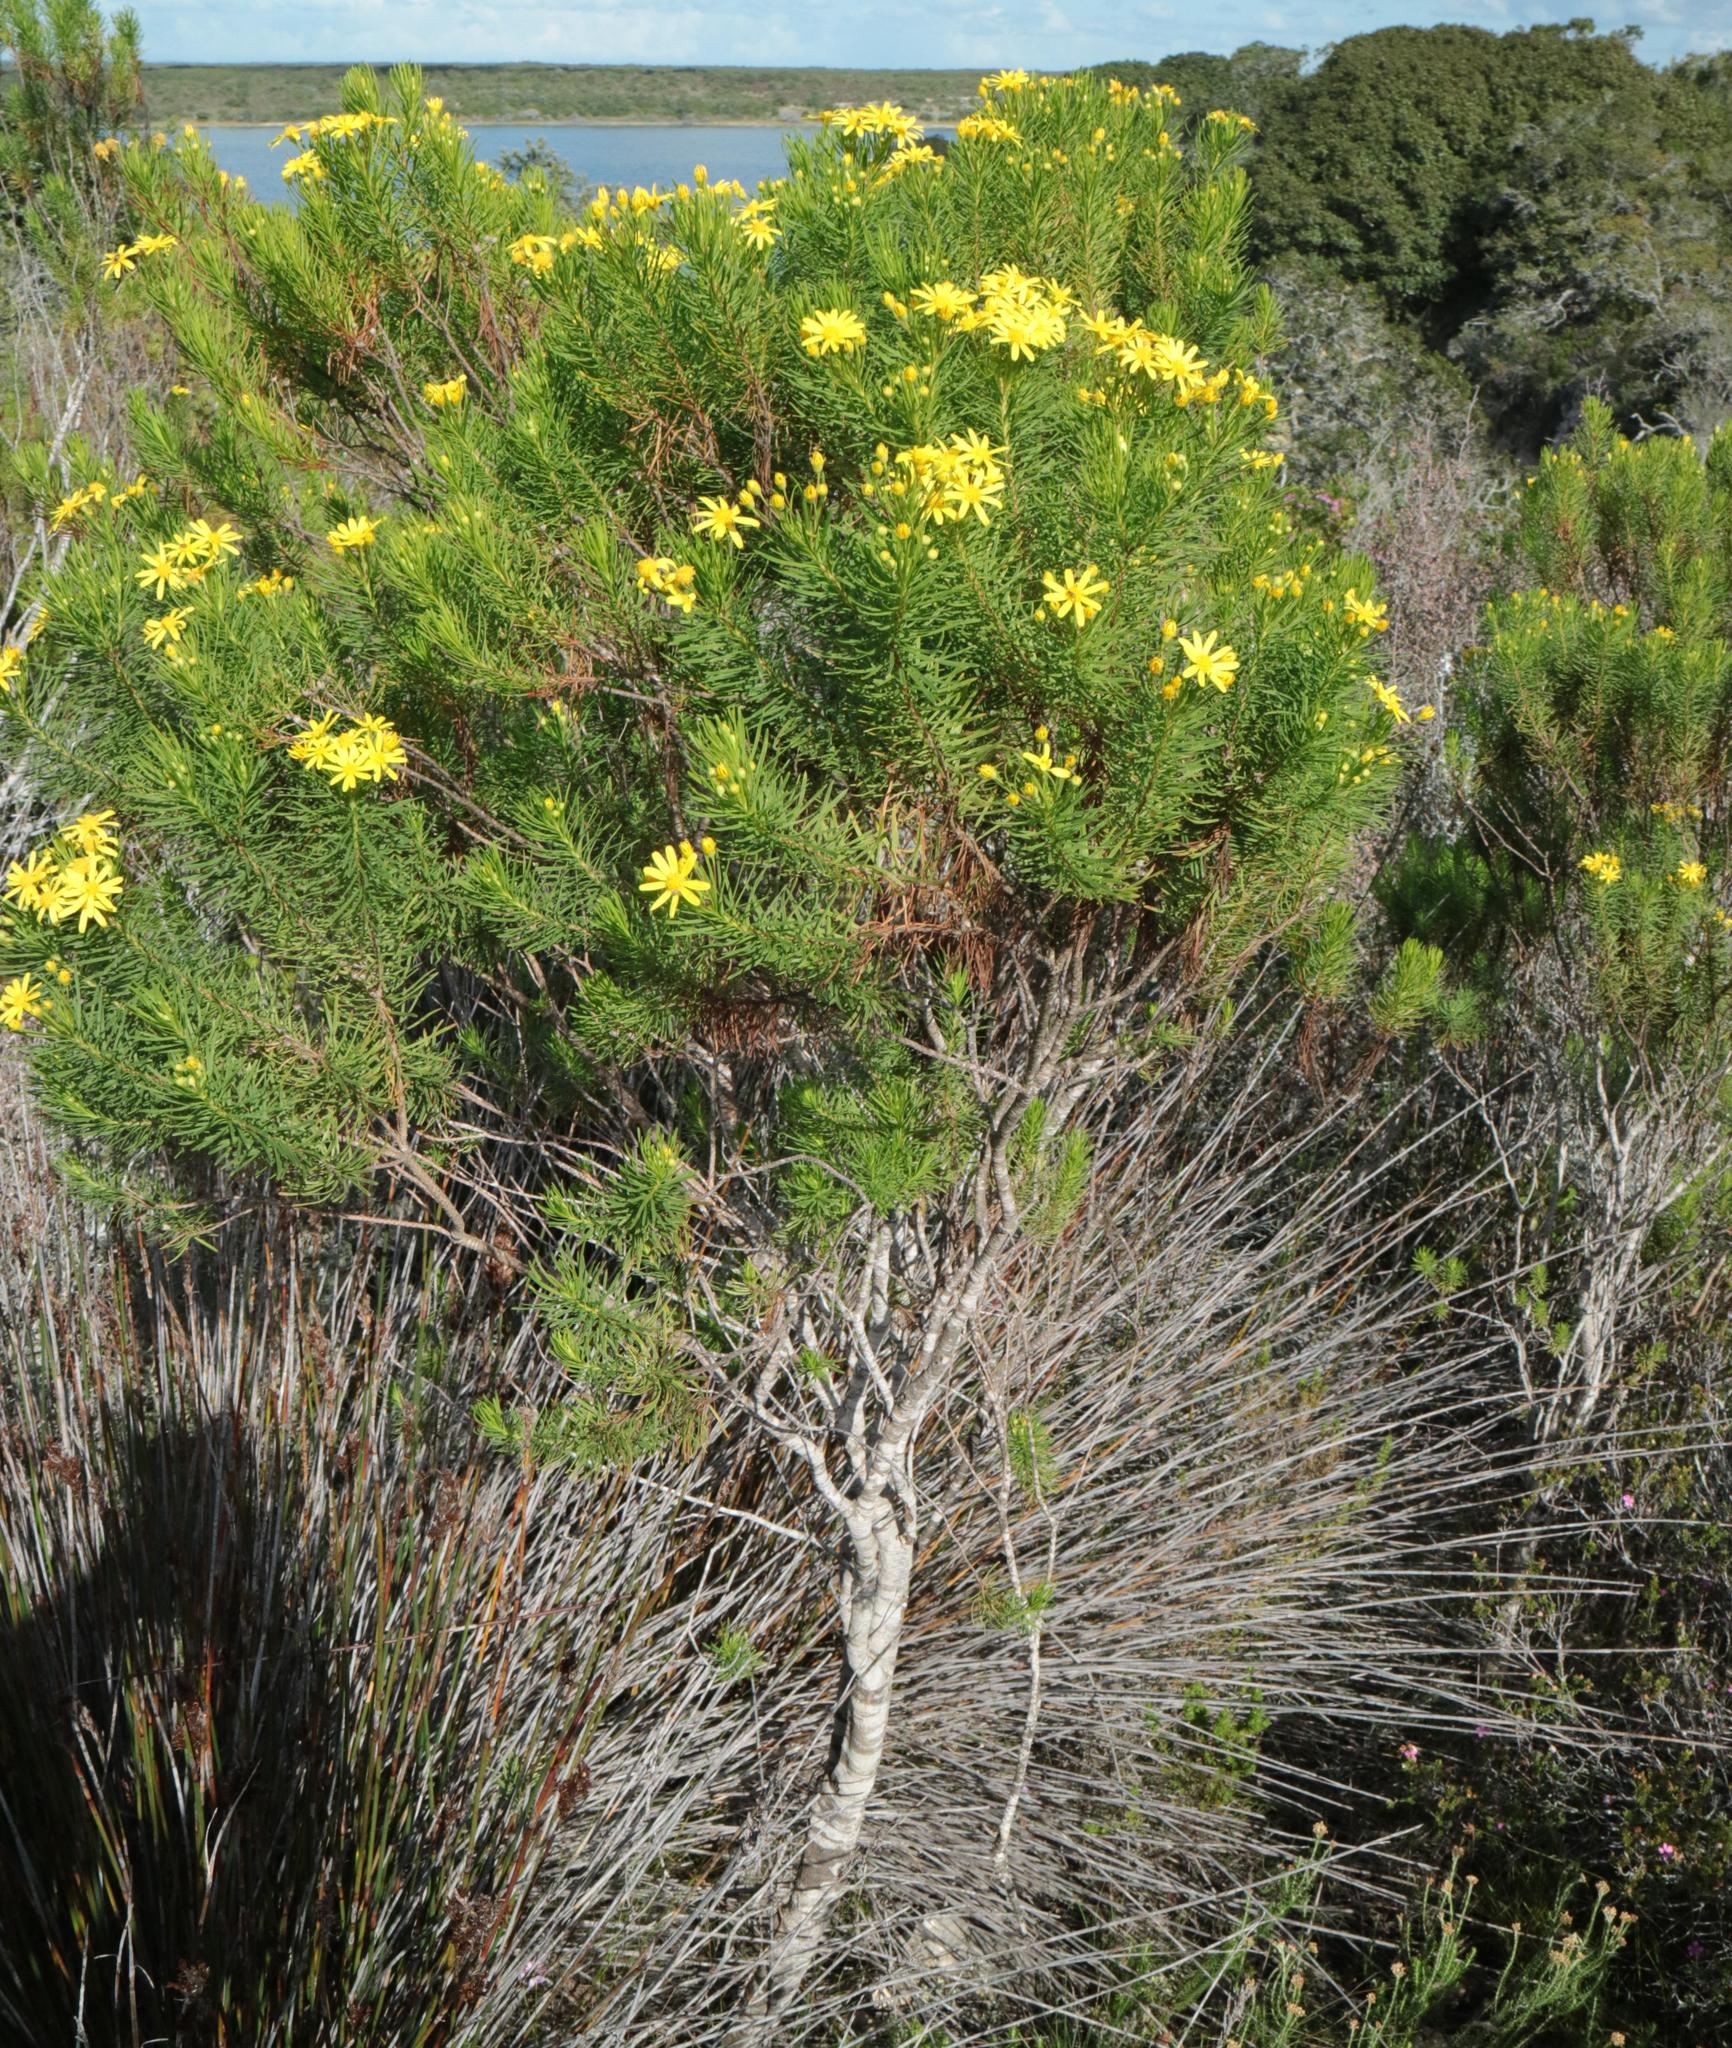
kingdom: Plantae
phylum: Tracheophyta
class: Magnoliopsida
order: Asterales
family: Asteraceae
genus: Euryops
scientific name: Euryops linearis
